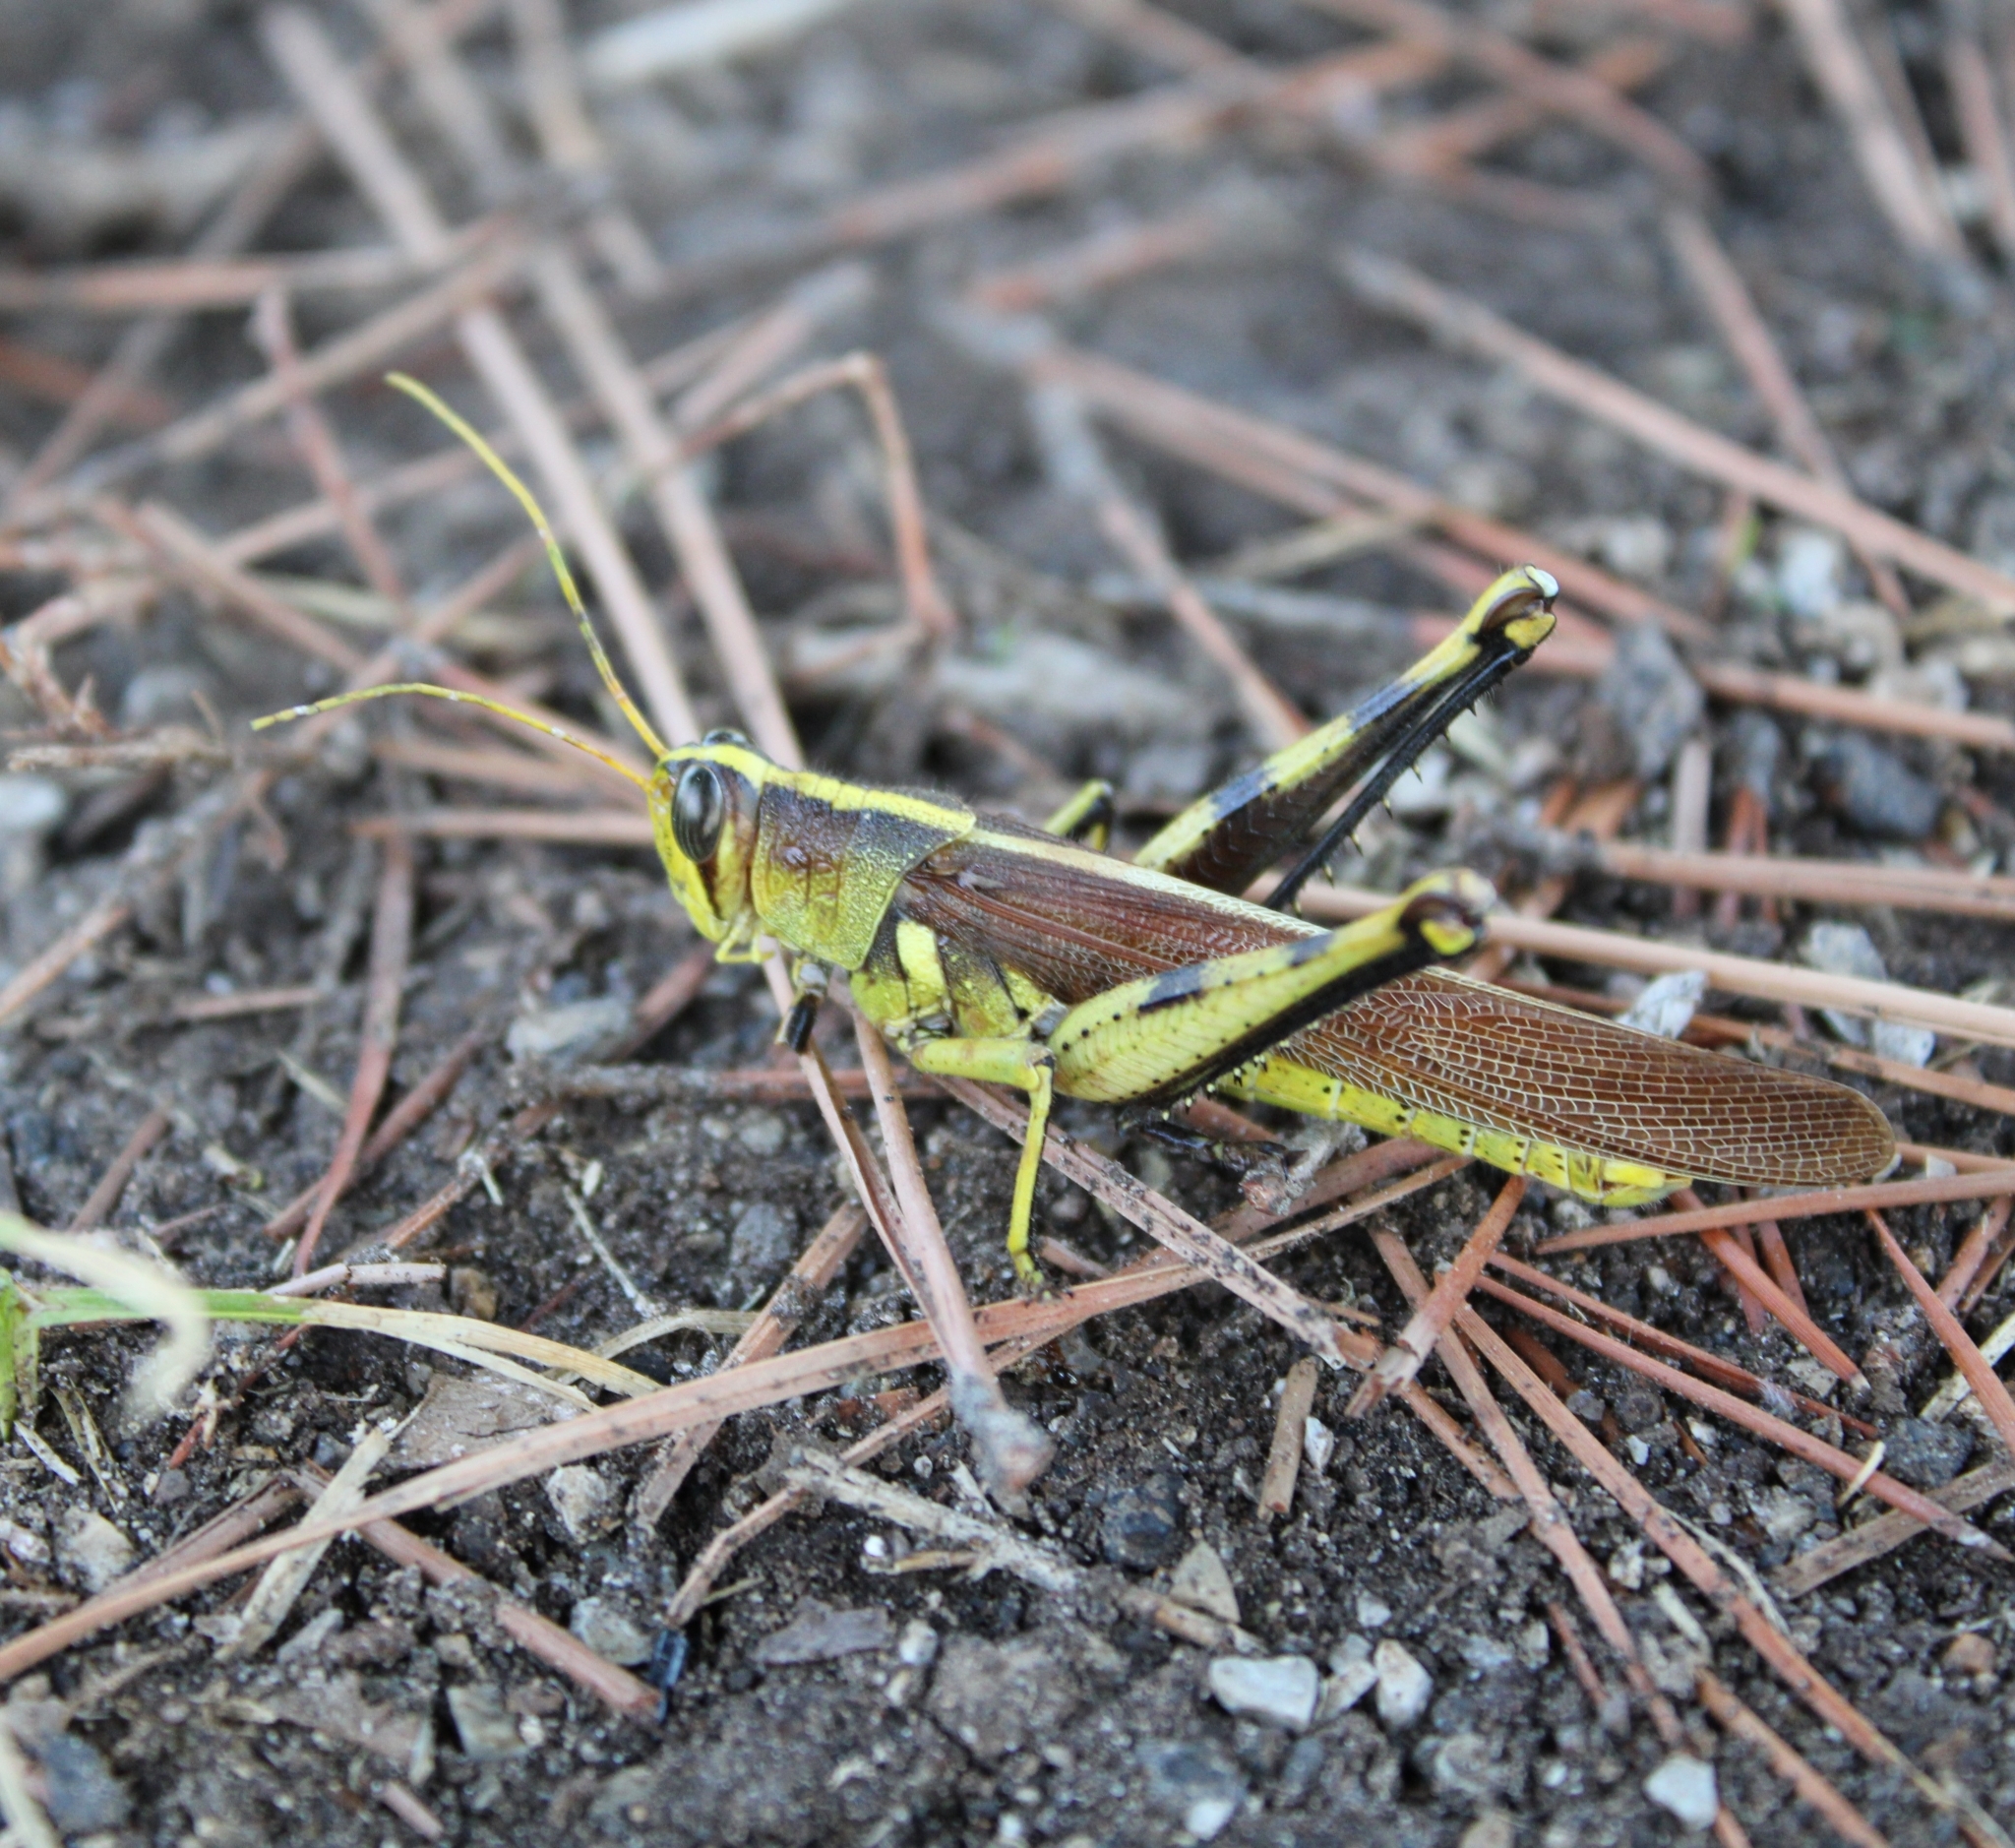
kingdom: Animalia
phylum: Arthropoda
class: Insecta
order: Orthoptera
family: Acrididae
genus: Schistocerca
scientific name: Schistocerca obscura
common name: Obscure bird grasshopper
